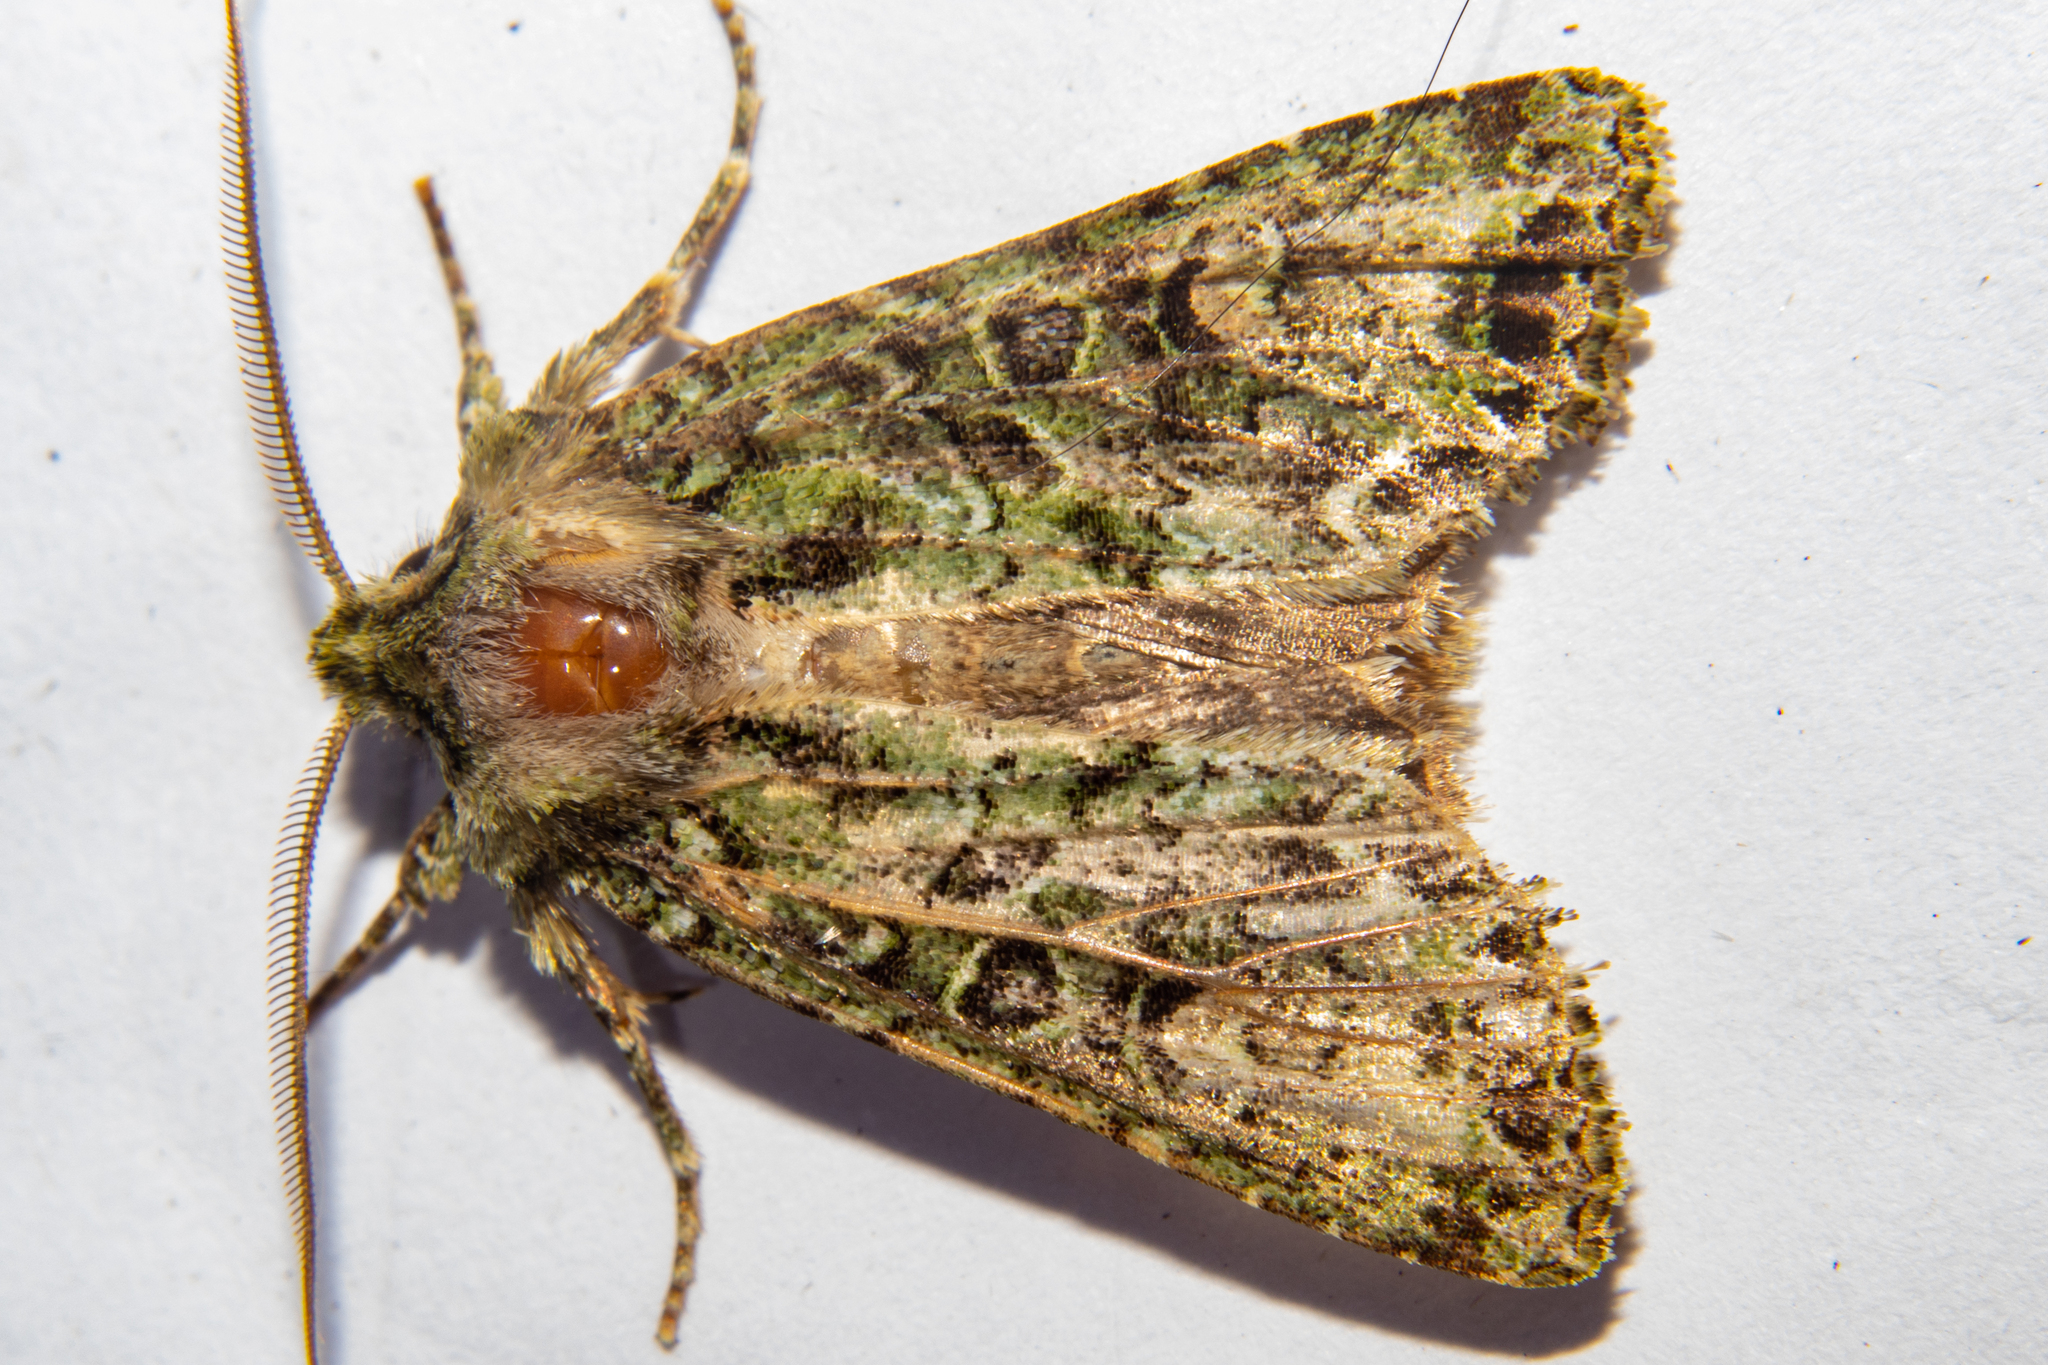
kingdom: Animalia
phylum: Arthropoda
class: Insecta
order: Lepidoptera
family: Noctuidae
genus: Ichneutica
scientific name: Ichneutica
